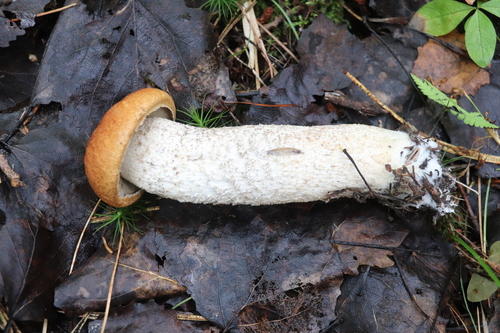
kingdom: Fungi
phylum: Basidiomycota
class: Agaricomycetes
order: Boletales
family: Boletaceae
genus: Leccinum
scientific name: Leccinum albostipitatum
